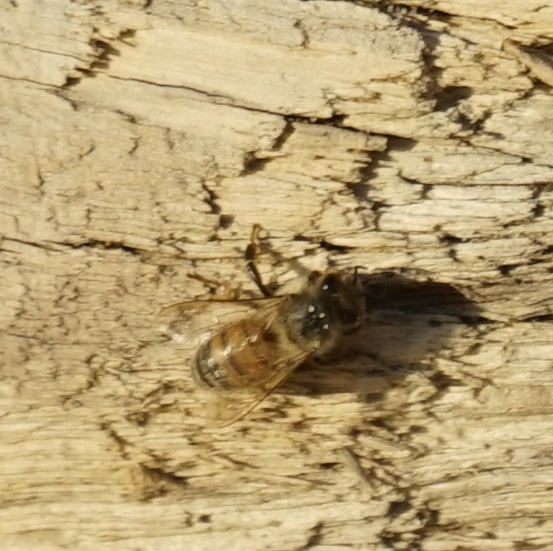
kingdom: Animalia
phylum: Arthropoda
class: Insecta
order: Hymenoptera
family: Apidae
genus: Apis
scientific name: Apis mellifera
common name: Honey bee
